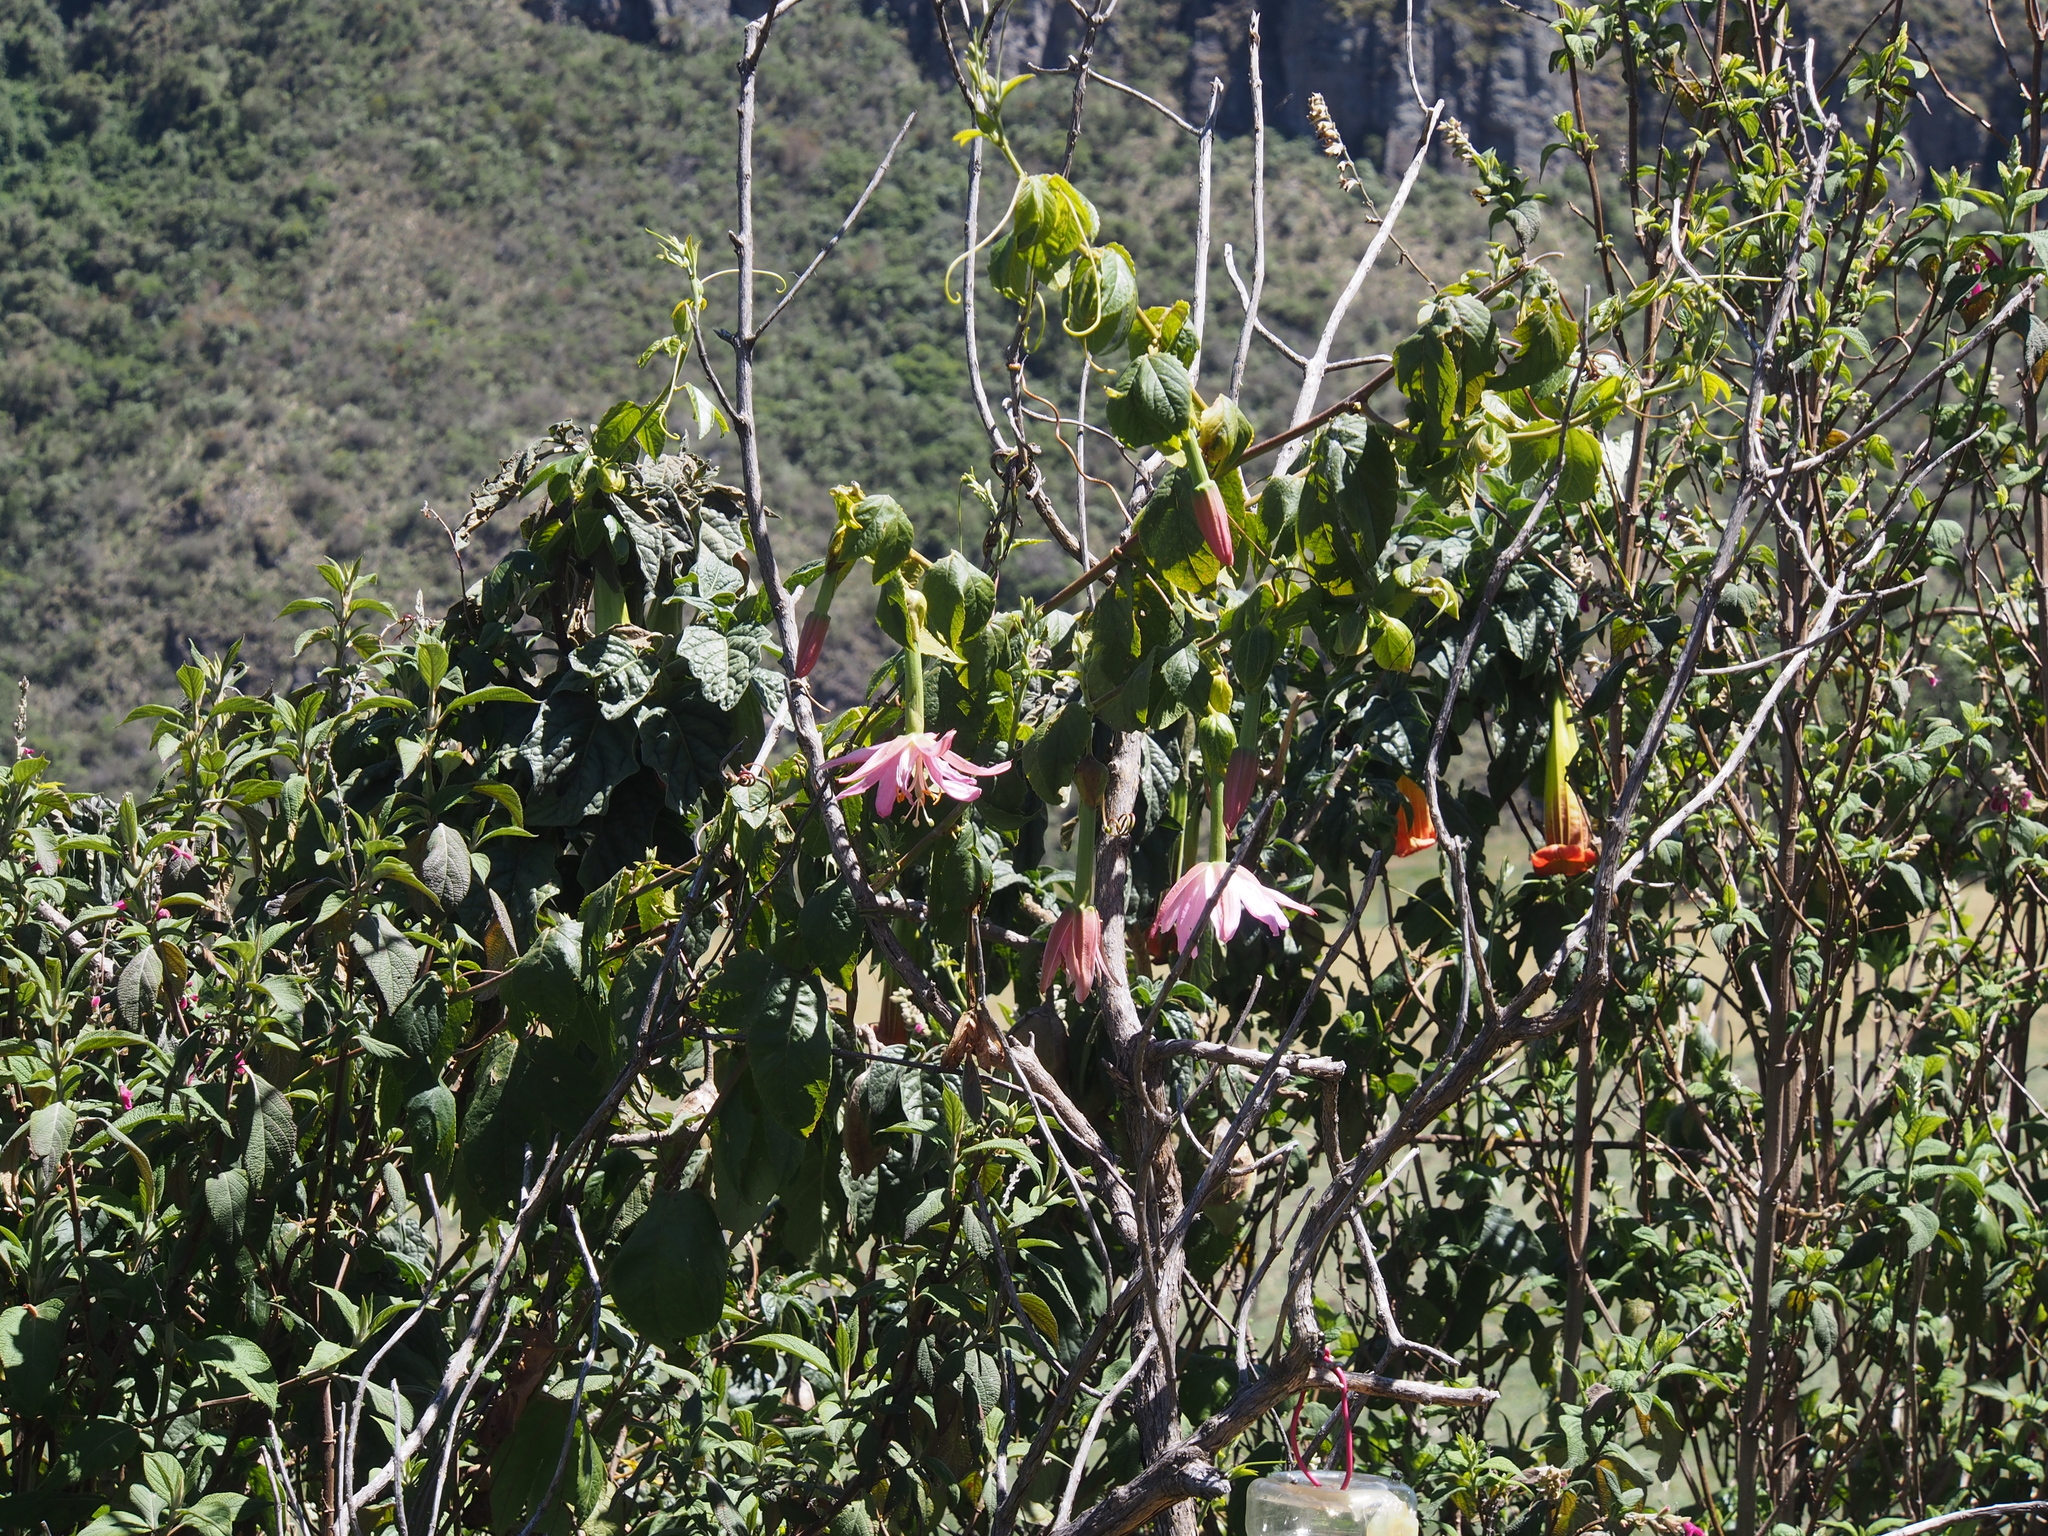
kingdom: Plantae
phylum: Tracheophyta
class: Magnoliopsida
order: Malpighiales
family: Passifloraceae
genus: Passiflora
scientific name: Passiflora tarminiana
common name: Banana poka
